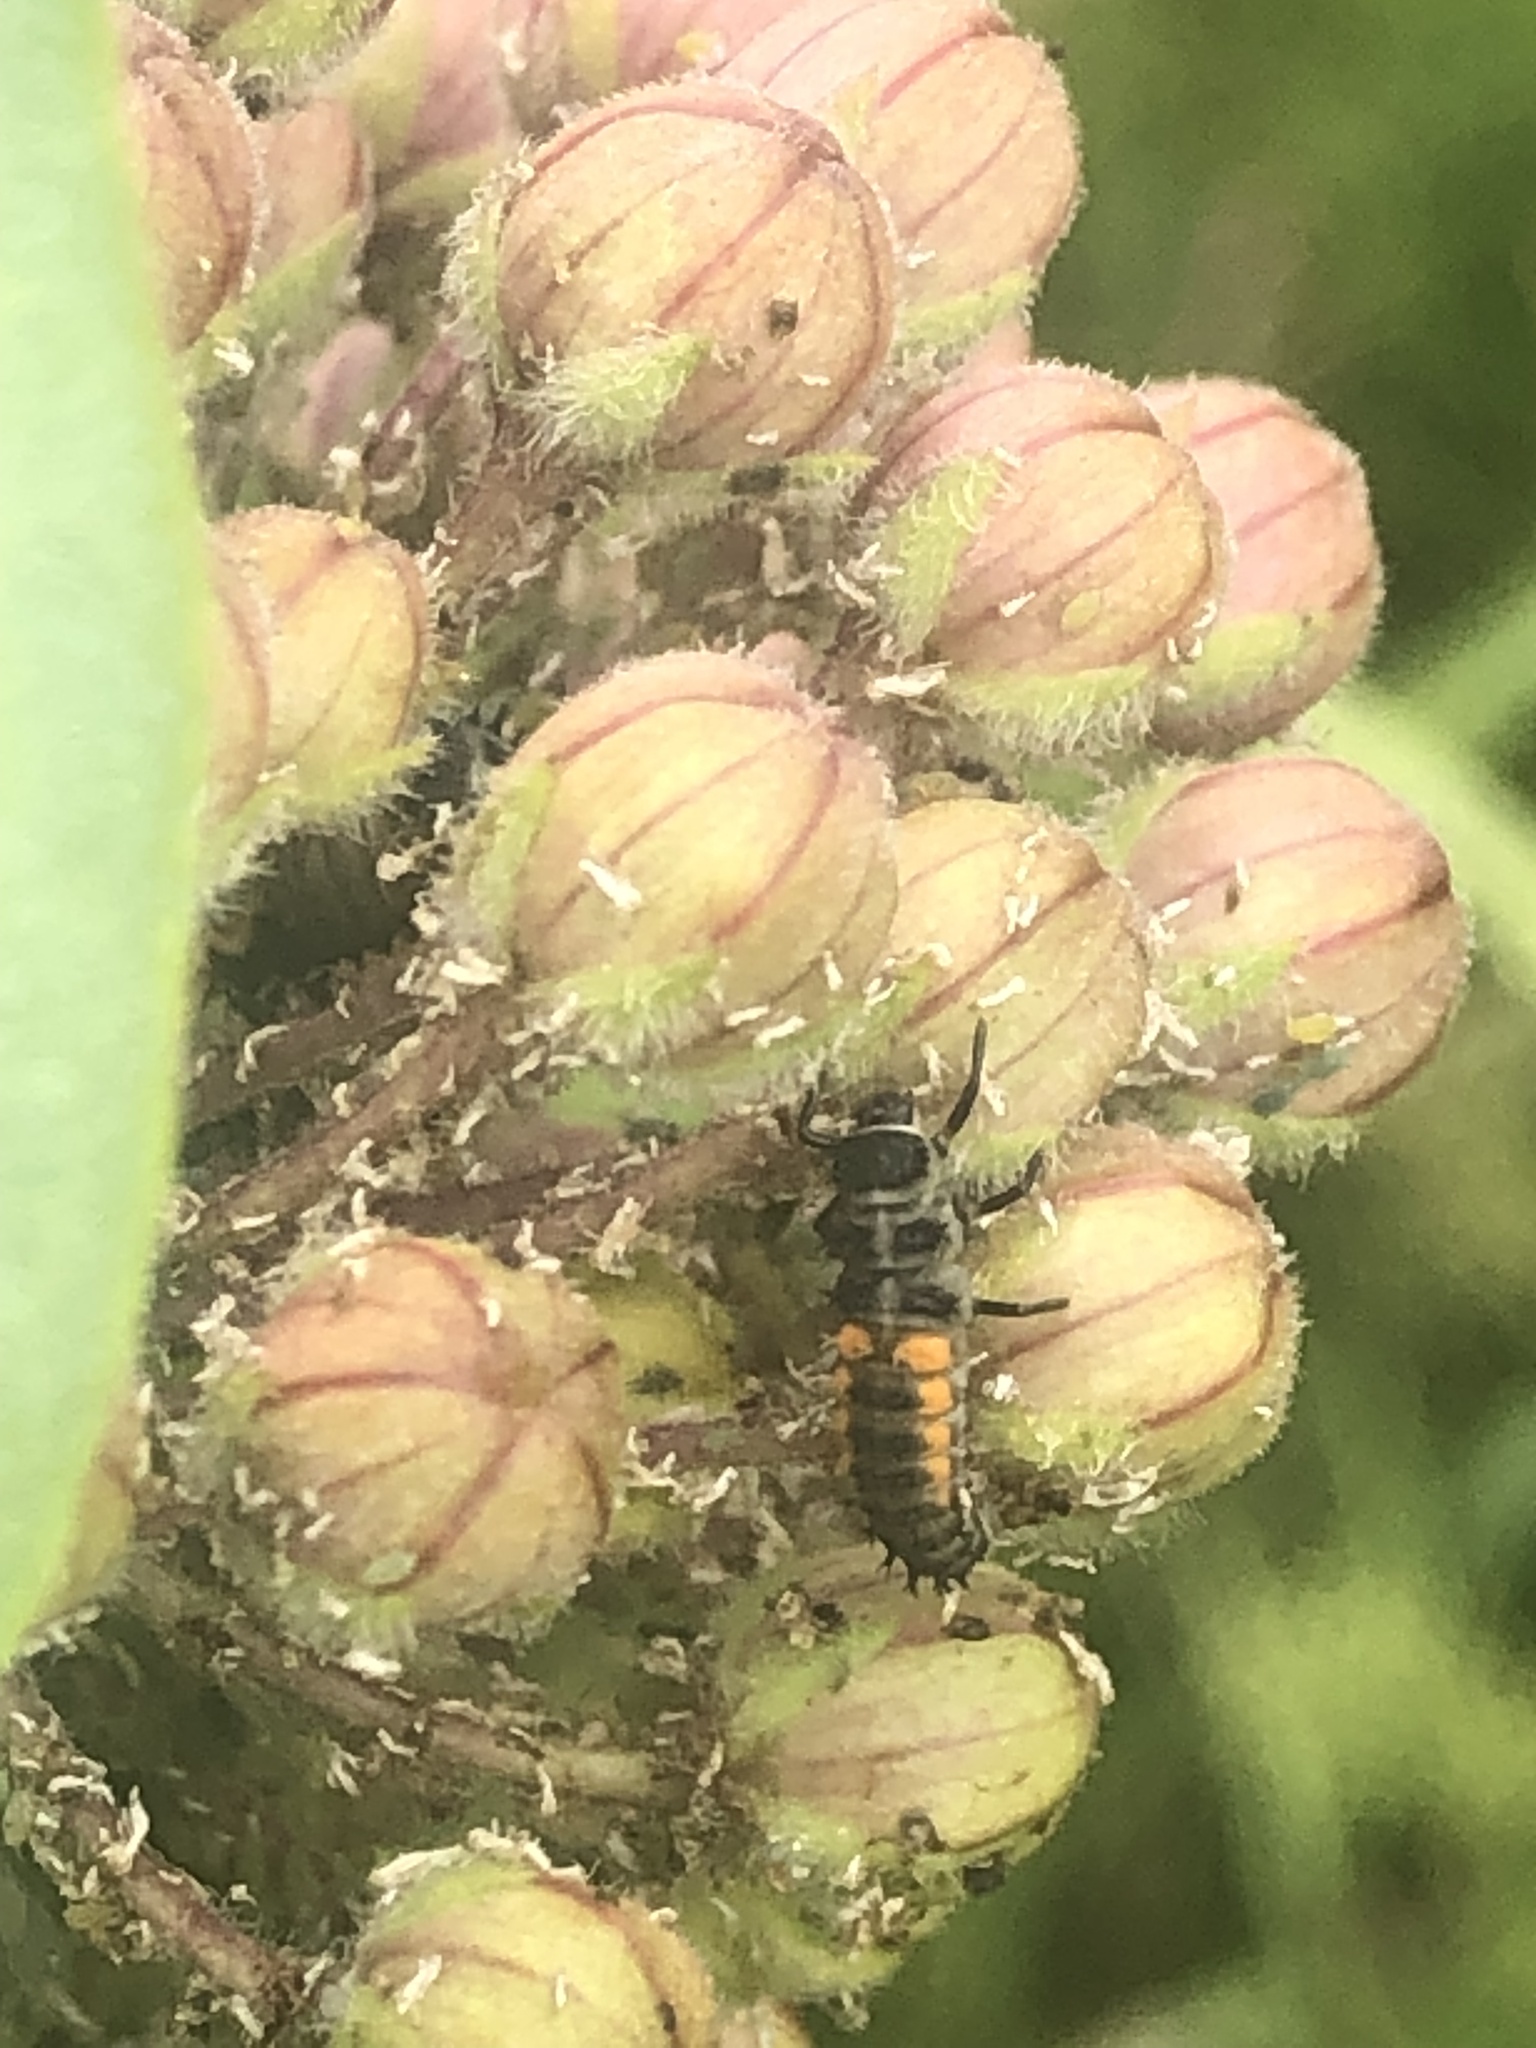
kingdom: Animalia
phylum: Arthropoda
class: Insecta
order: Coleoptera
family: Coccinellidae
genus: Harmonia
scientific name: Harmonia axyridis
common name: Harlequin ladybird
